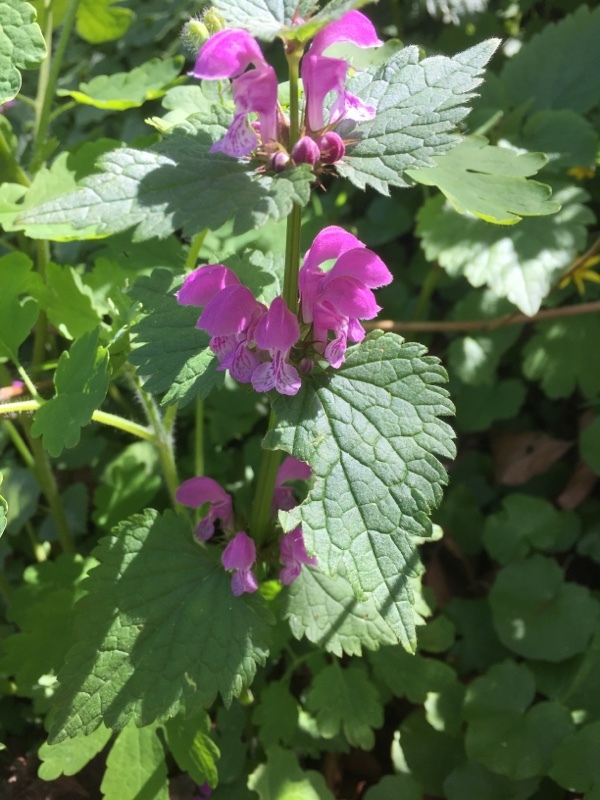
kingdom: Plantae
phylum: Tracheophyta
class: Magnoliopsida
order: Lamiales
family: Lamiaceae
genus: Lamium
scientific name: Lamium maculatum
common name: Spotted dead-nettle
